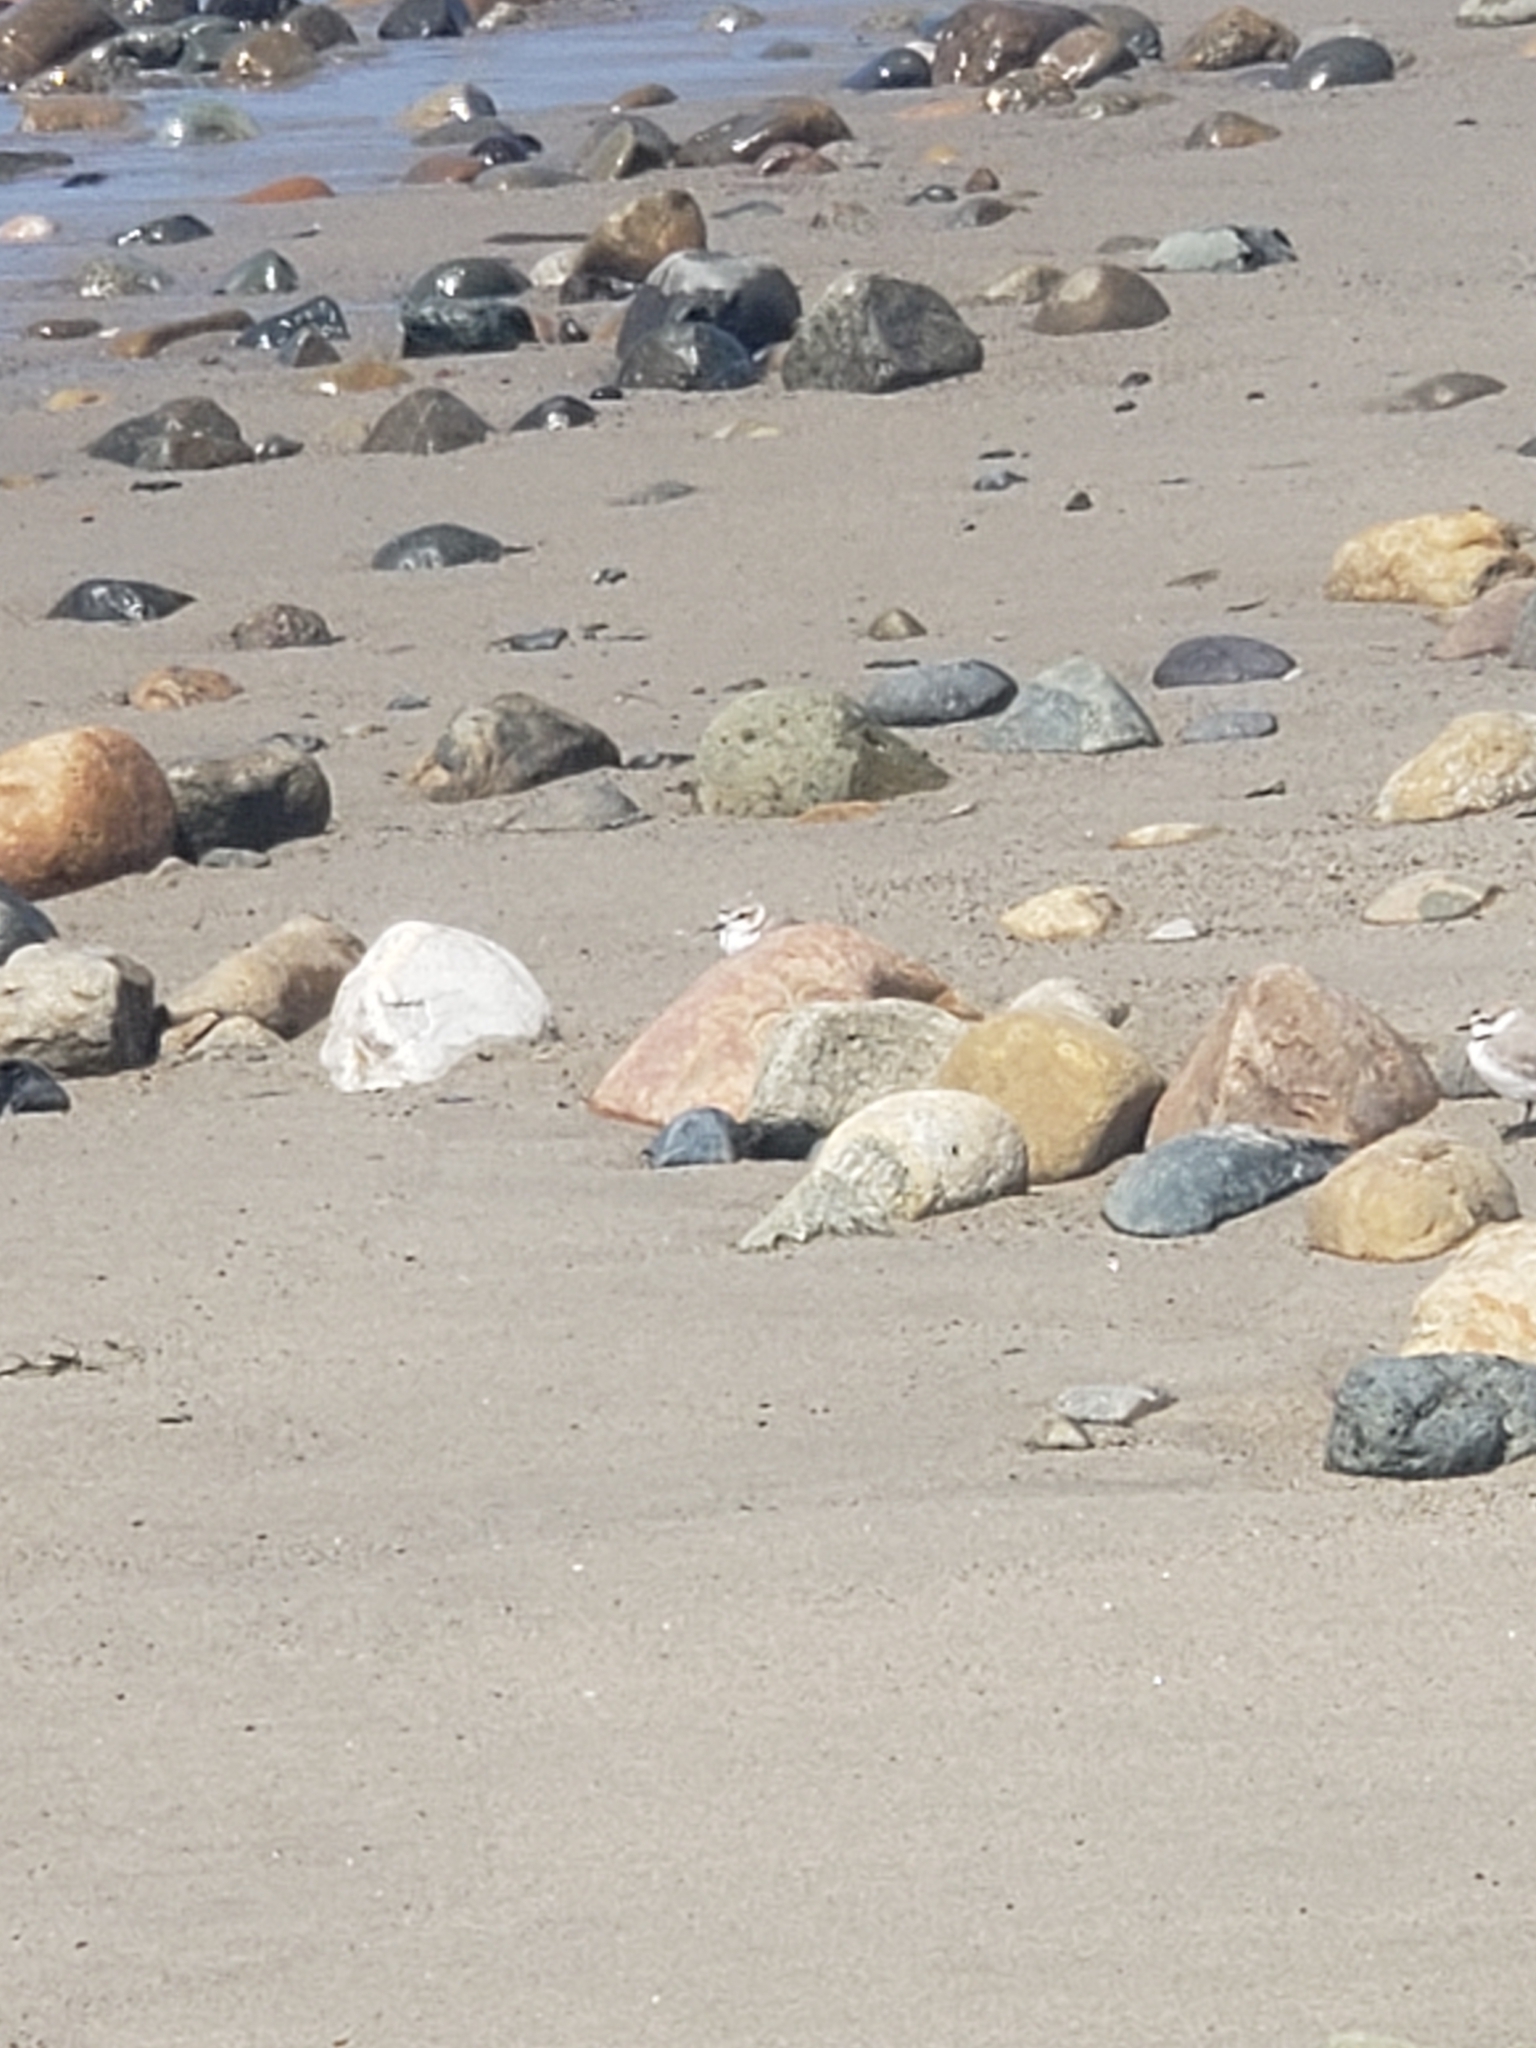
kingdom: Animalia
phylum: Chordata
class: Aves
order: Charadriiformes
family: Charadriidae
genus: Anarhynchus
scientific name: Anarhynchus
